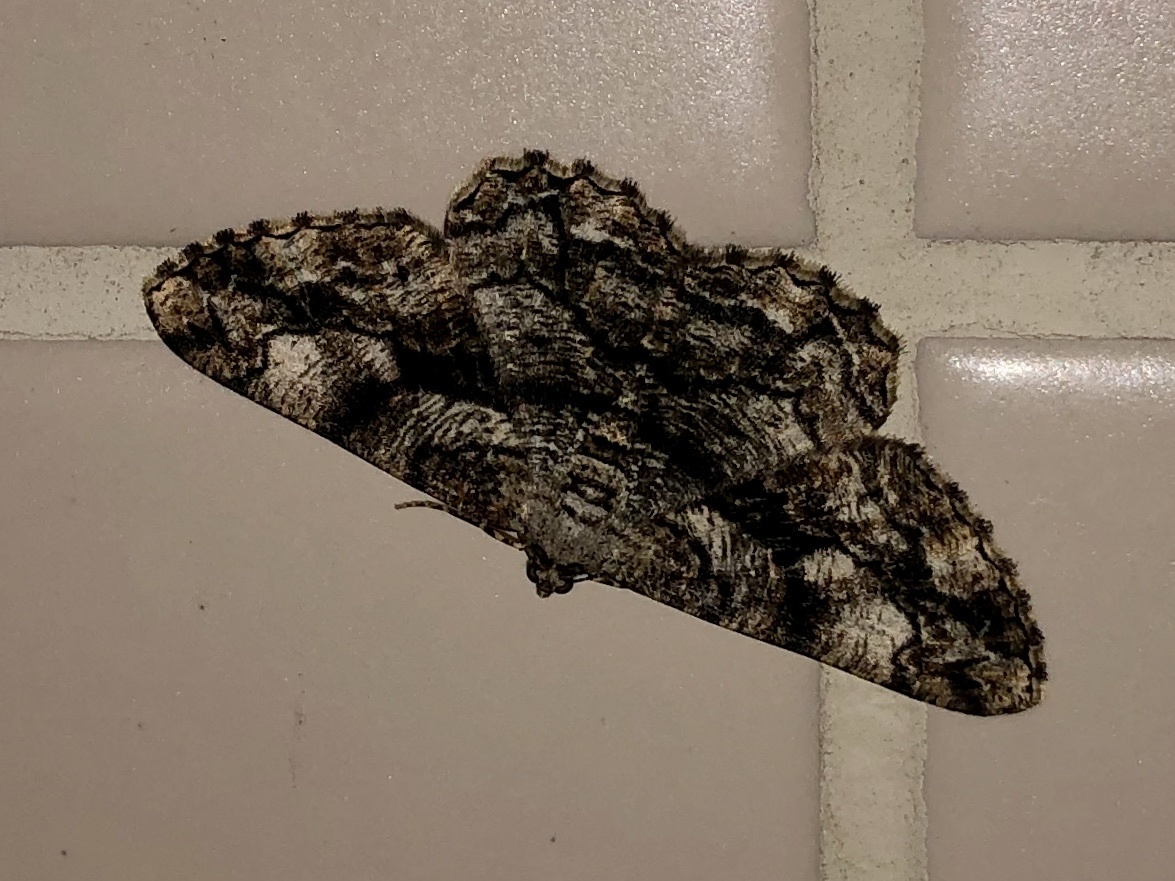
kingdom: Animalia
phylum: Arthropoda
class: Insecta
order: Lepidoptera
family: Geometridae
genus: Peribatodes
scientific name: Peribatodes umbraria
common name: Olive-tree beauty
